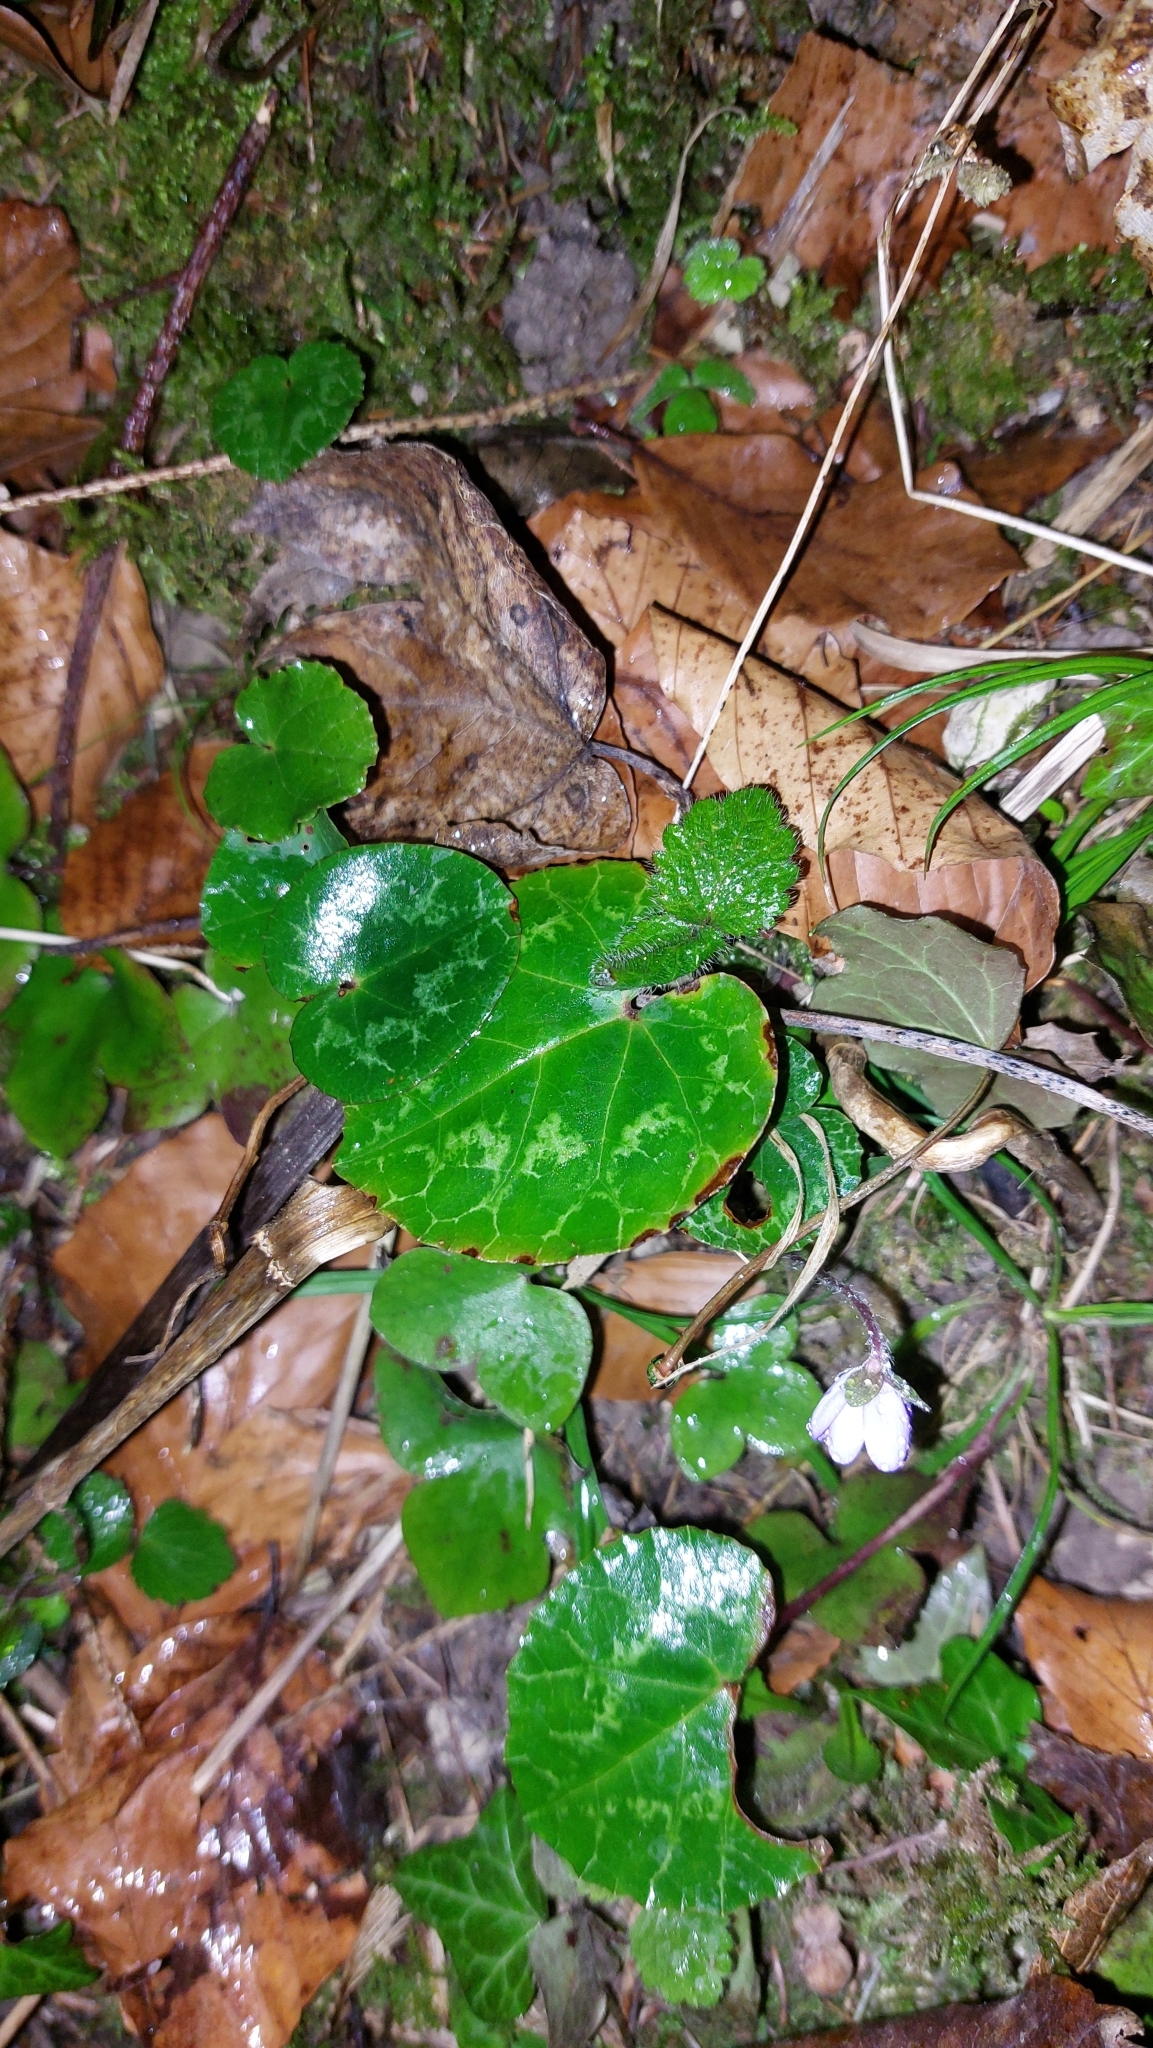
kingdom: Plantae
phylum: Tracheophyta
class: Magnoliopsida
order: Ericales
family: Primulaceae
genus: Cyclamen
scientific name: Cyclamen purpurascens
